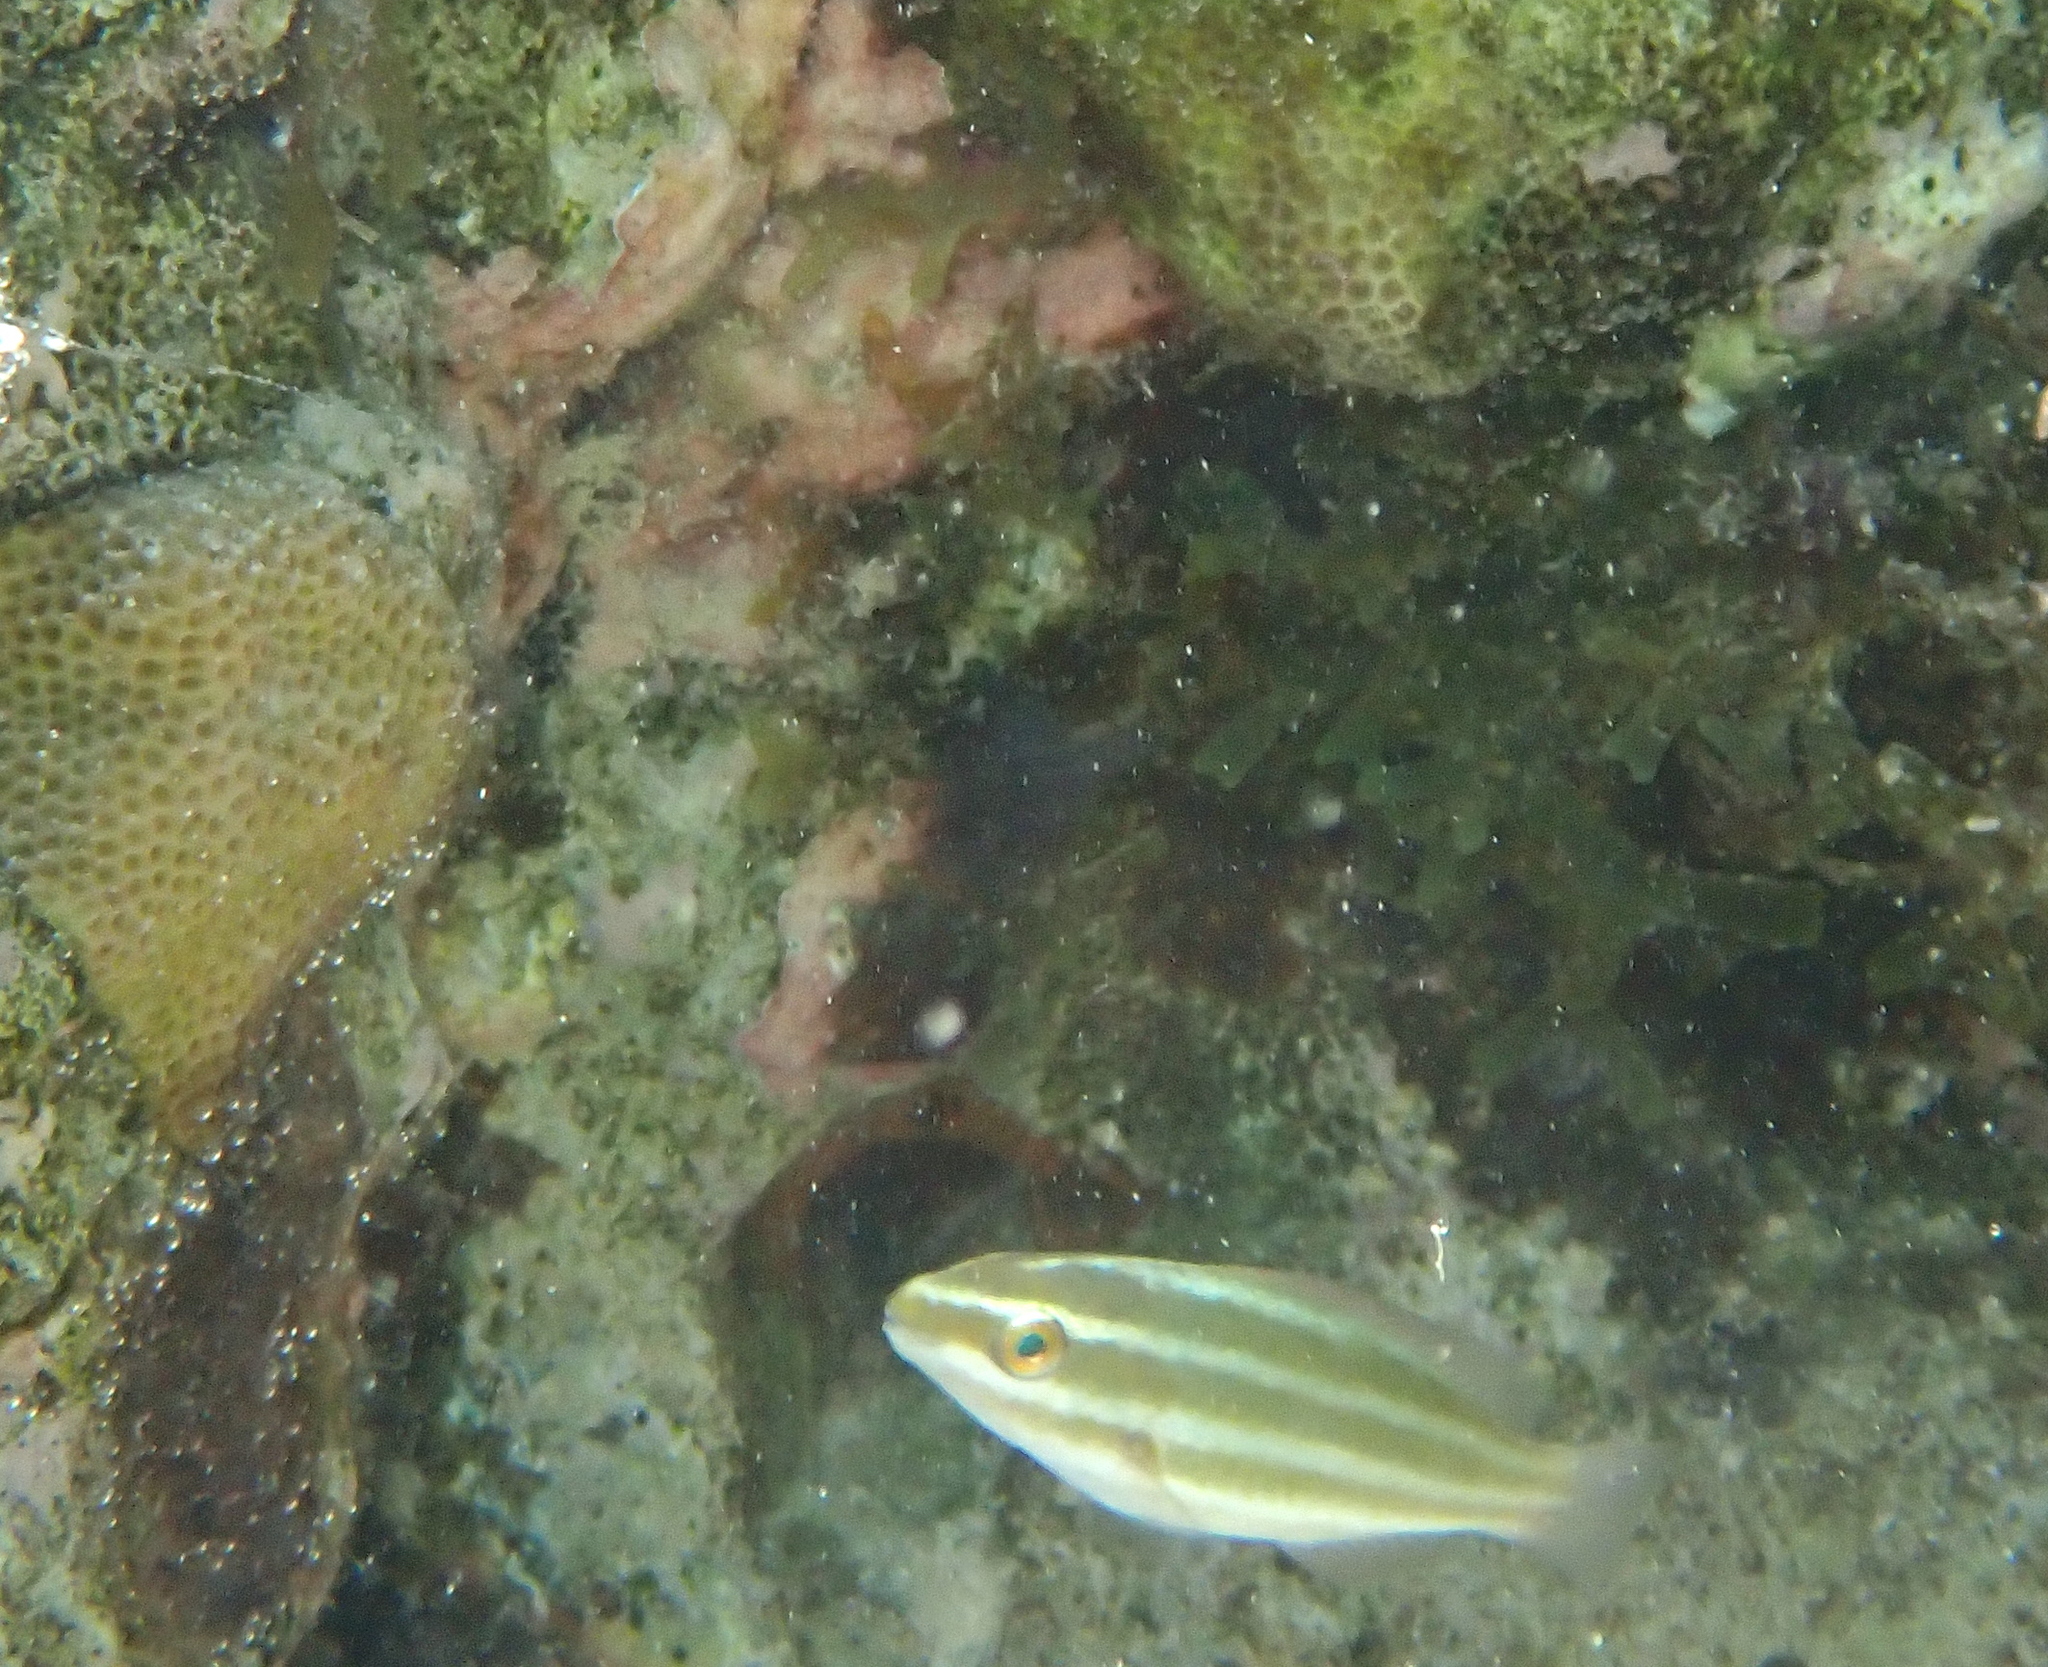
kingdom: Animalia
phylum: Chordata
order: Perciformes
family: Scaridae
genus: Chlorurus
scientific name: Chlorurus spilurus
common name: Bullethead parrotfish
